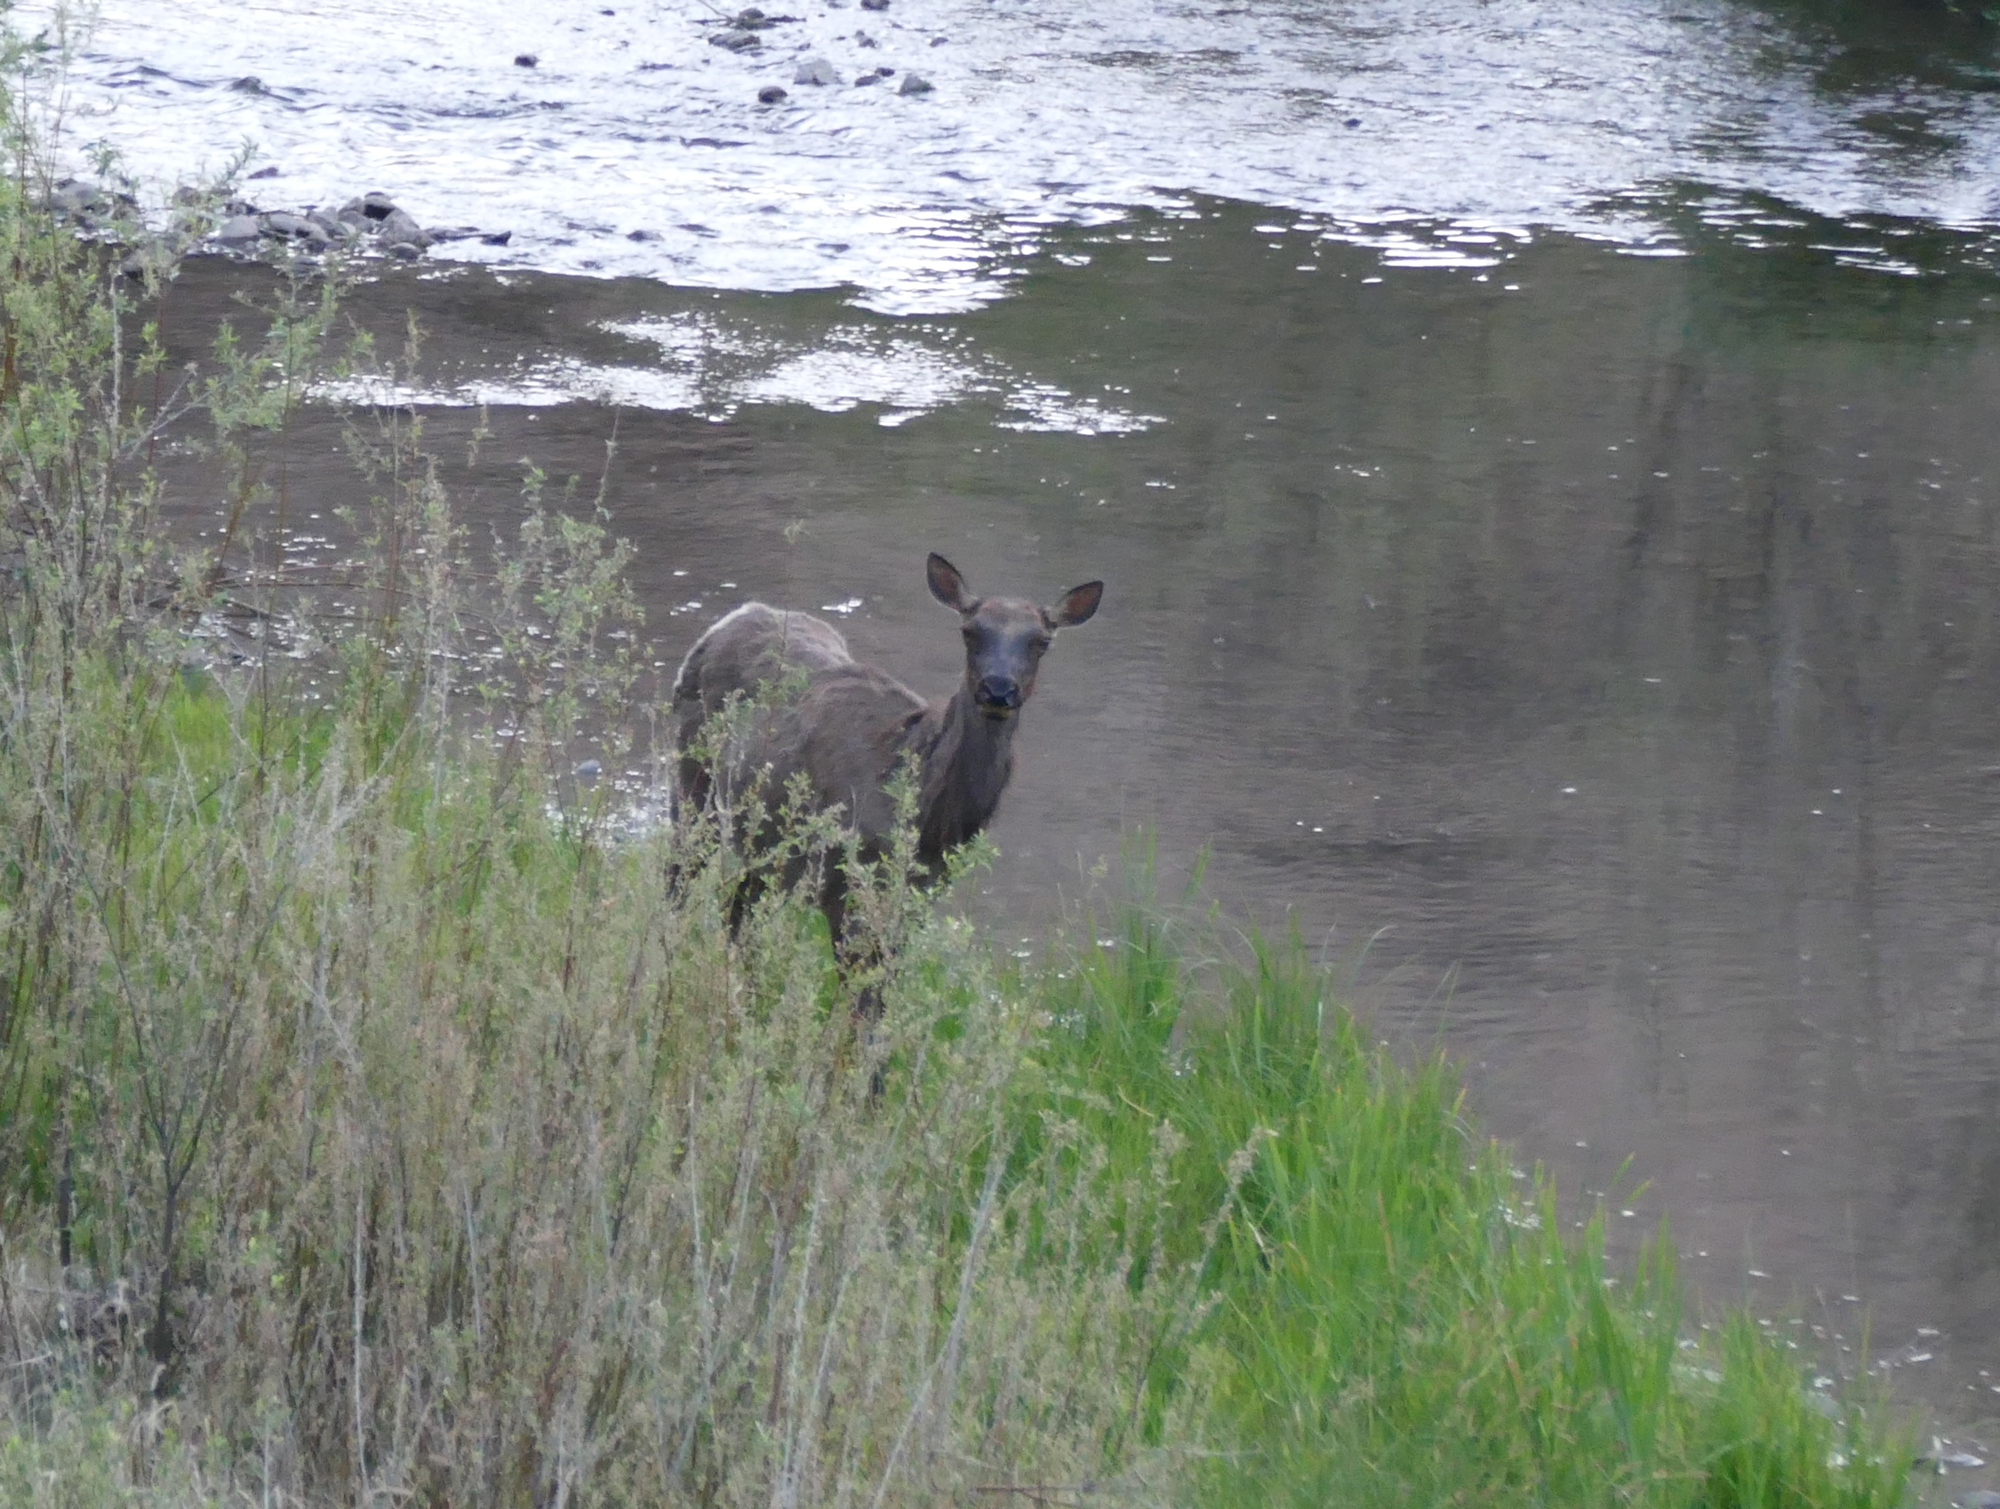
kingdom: Animalia
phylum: Chordata
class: Mammalia
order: Artiodactyla
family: Cervidae
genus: Cervus
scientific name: Cervus elaphus
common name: Red deer
